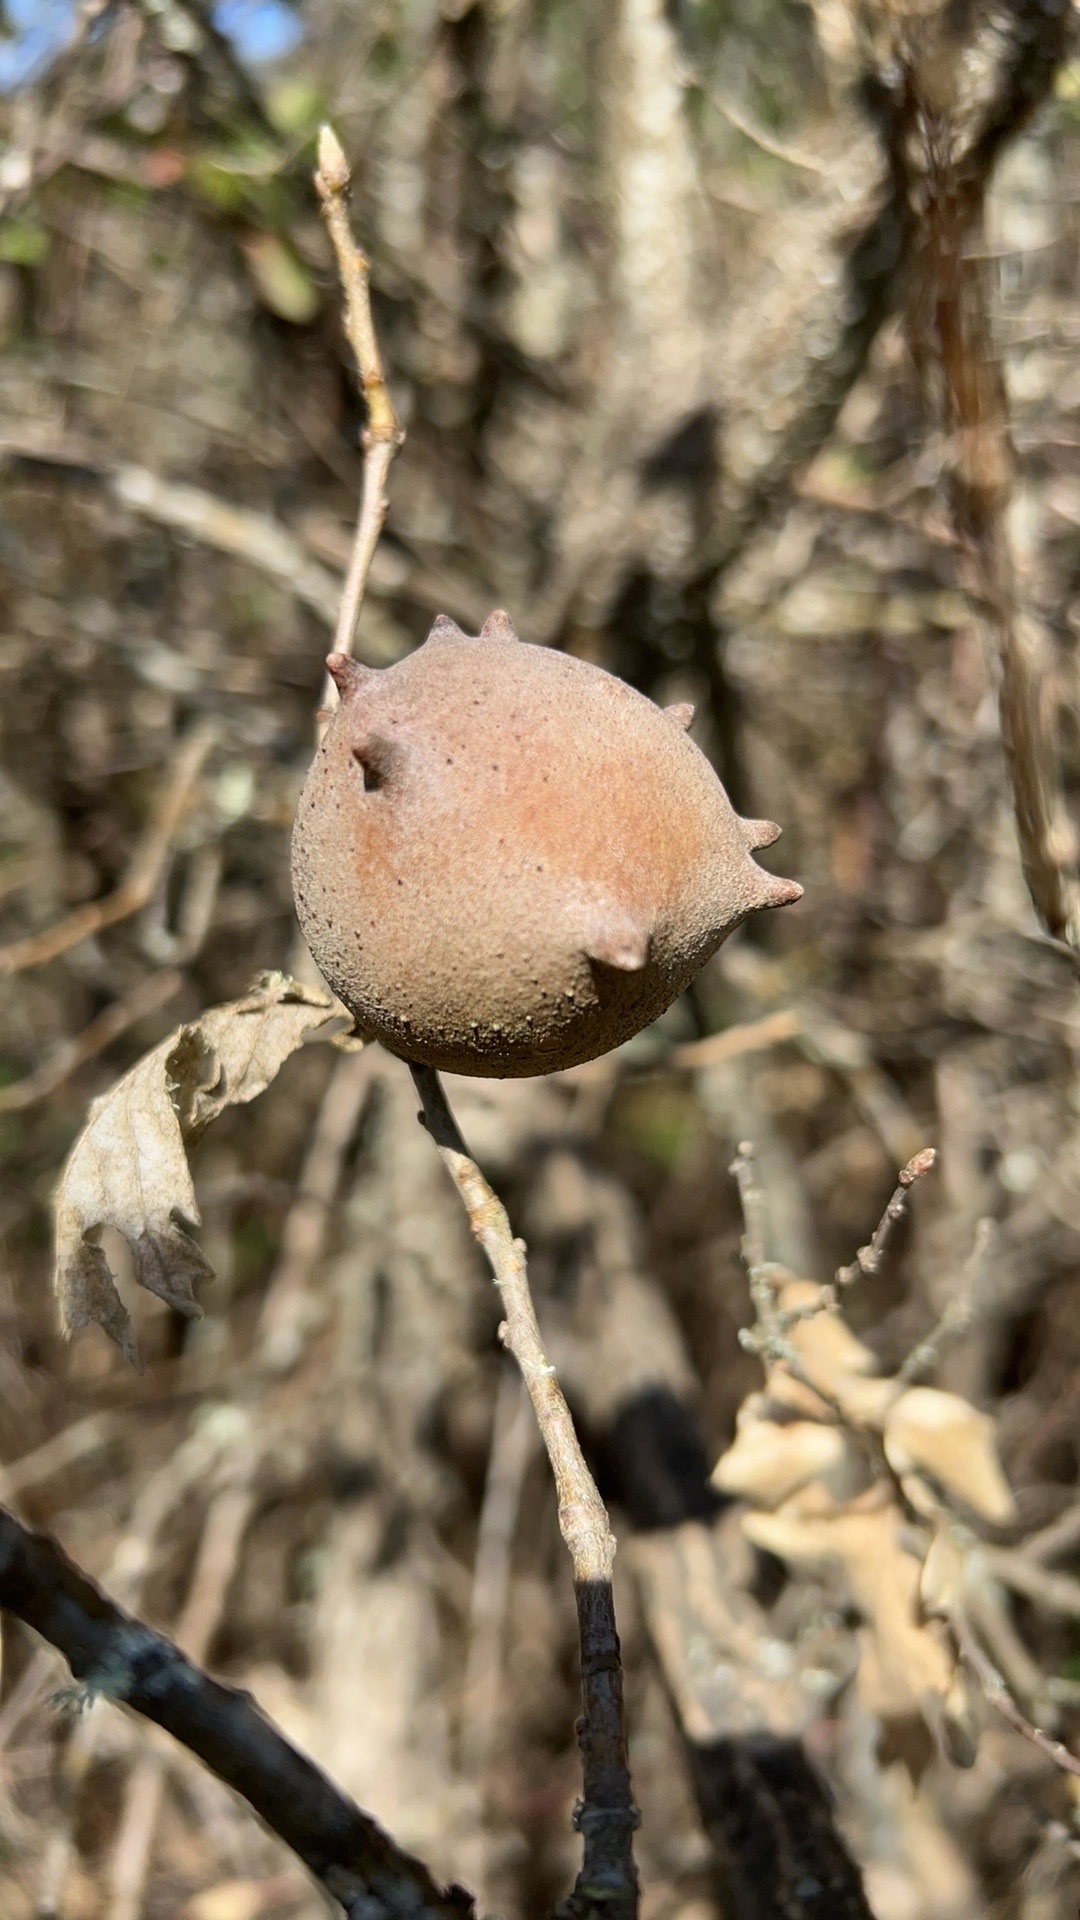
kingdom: Animalia
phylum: Arthropoda
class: Insecta
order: Hymenoptera
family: Cynipidae
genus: Andricus
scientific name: Andricus quercustozae
